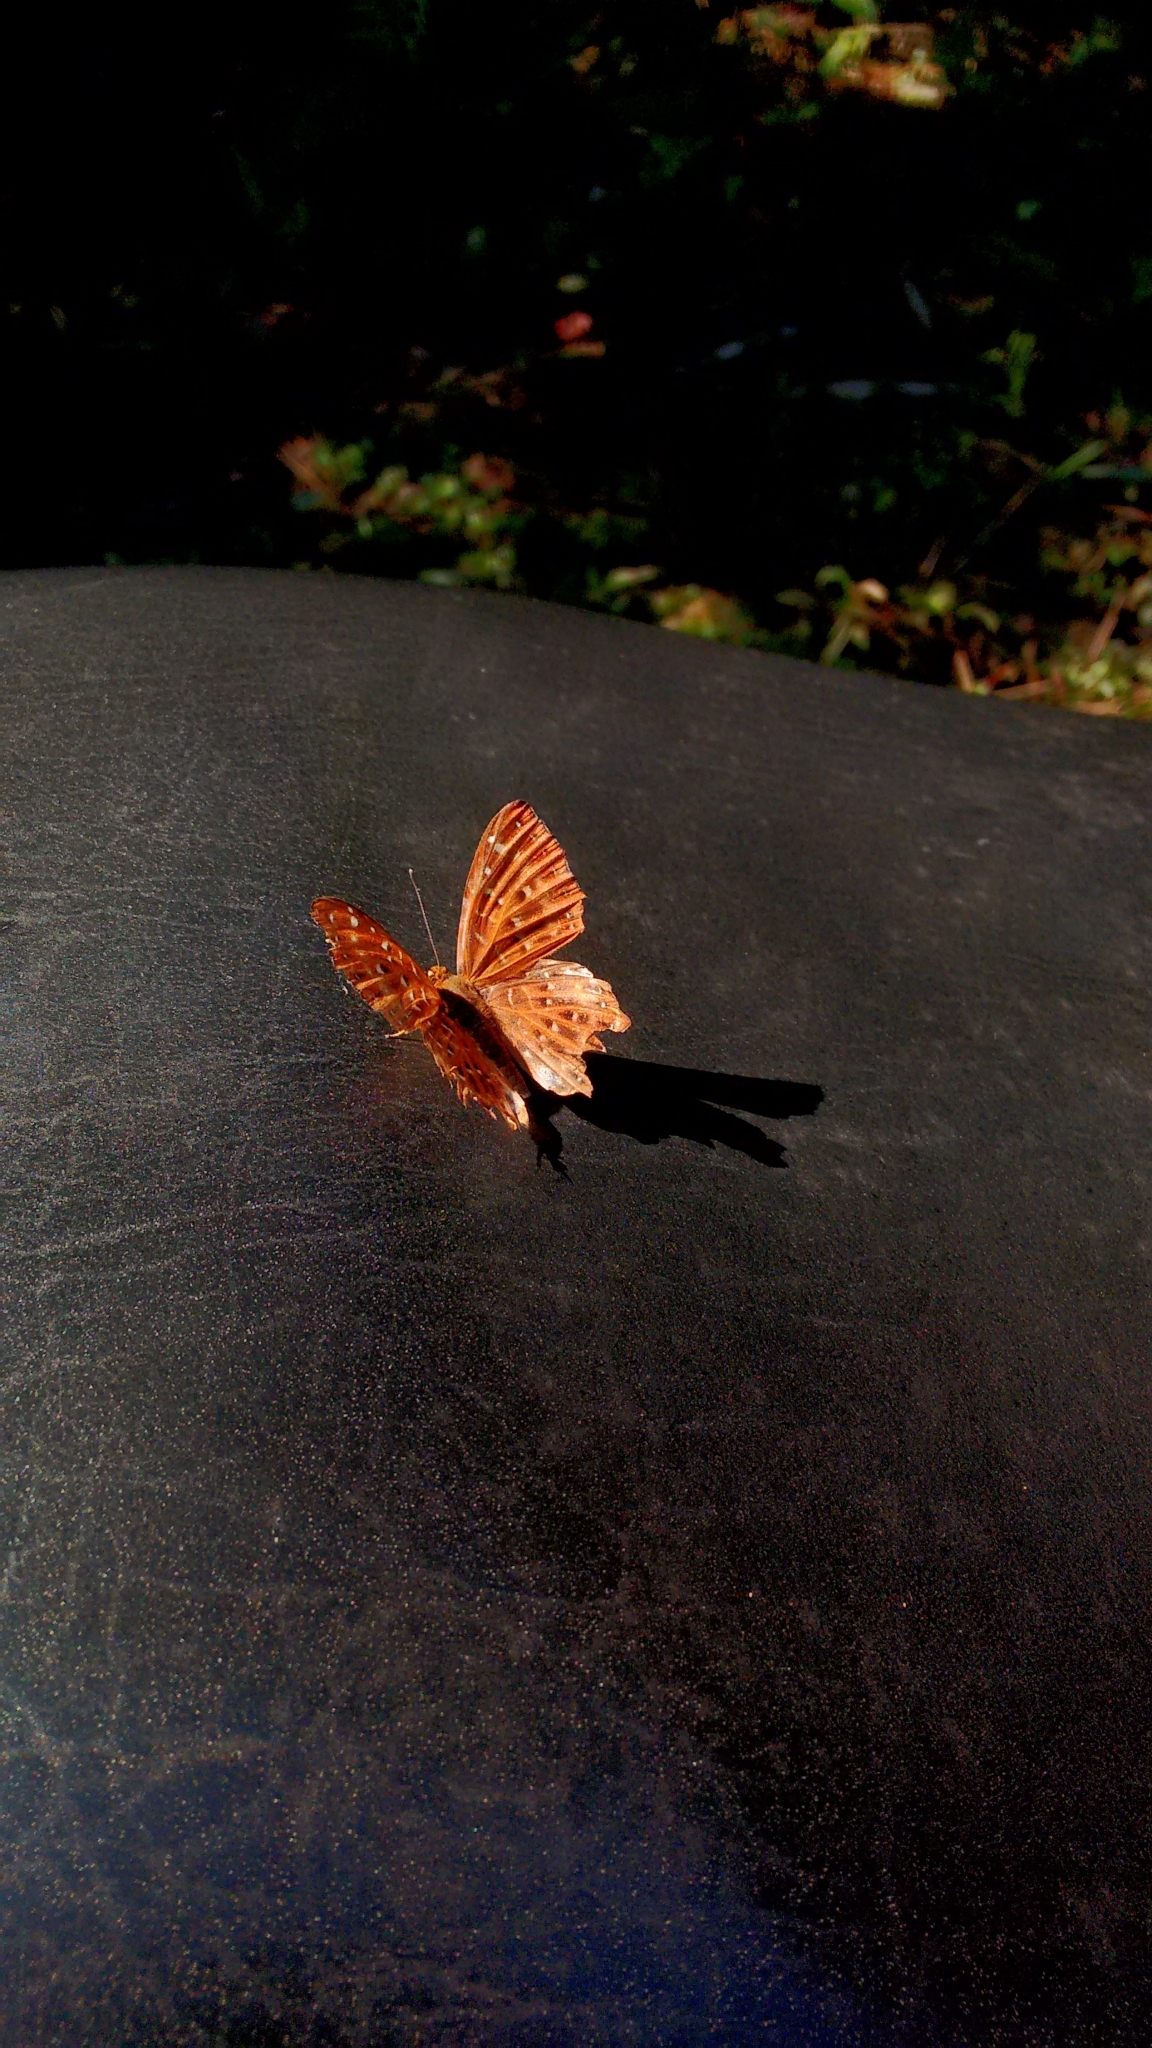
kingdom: Animalia
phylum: Arthropoda
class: Insecta
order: Lepidoptera
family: Riodinidae
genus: Zemeros
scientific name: Zemeros flegyas
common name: Punchinello
